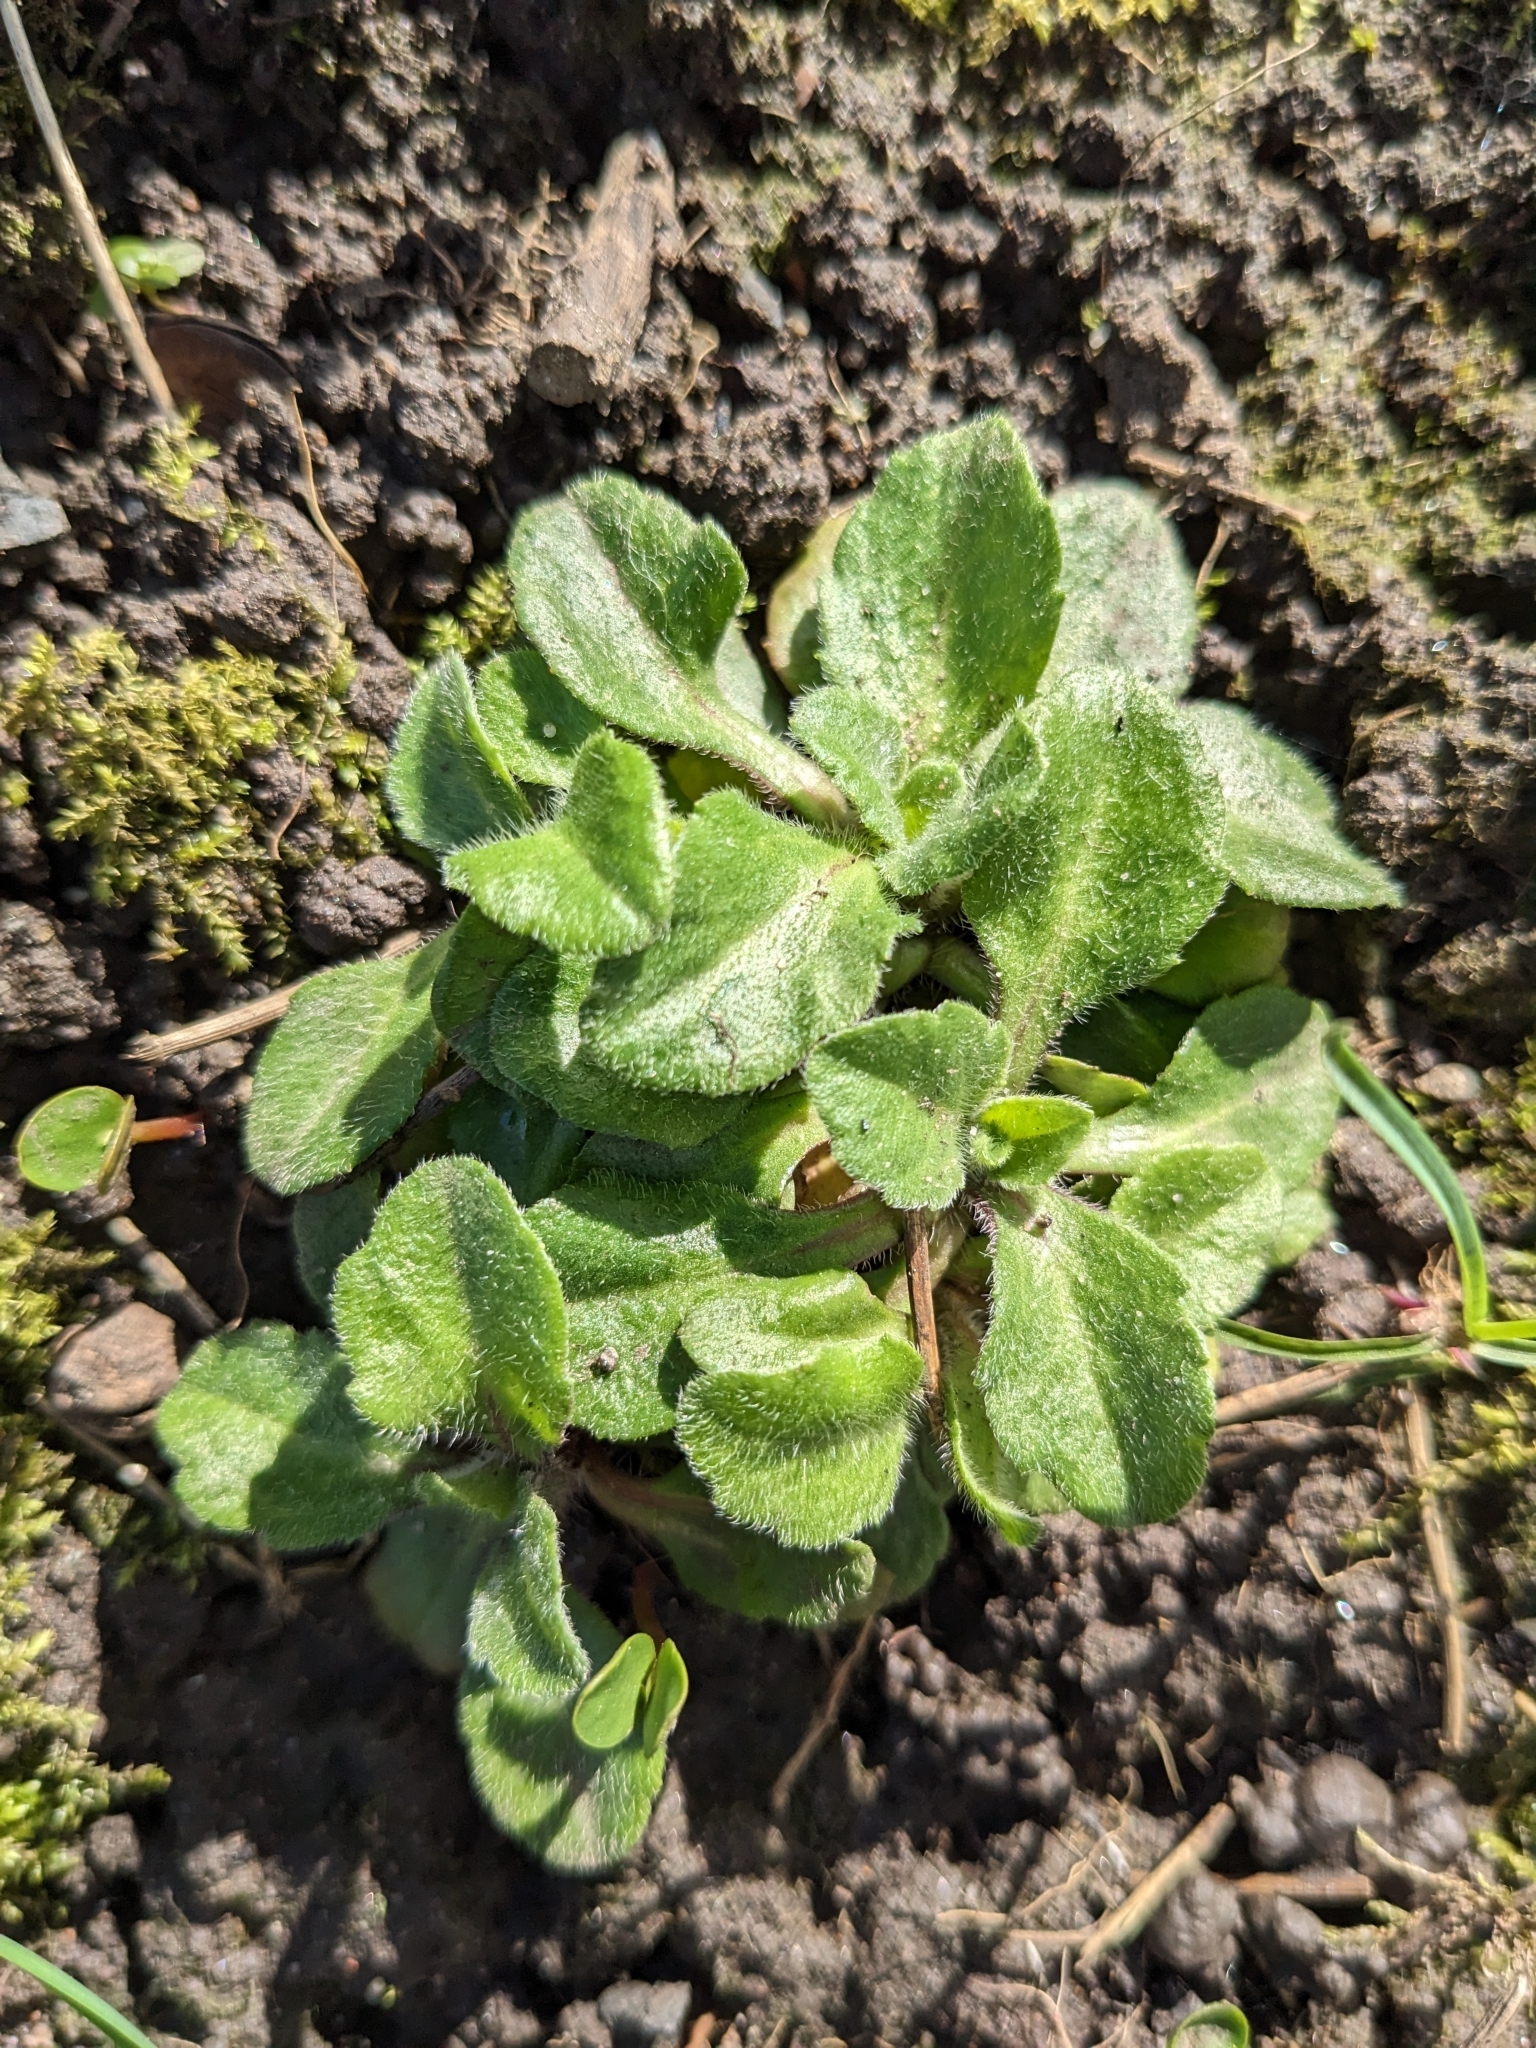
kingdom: Plantae
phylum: Tracheophyta
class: Magnoliopsida
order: Asterales
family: Asteraceae
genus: Bellis
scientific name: Bellis perennis
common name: Lawndaisy
